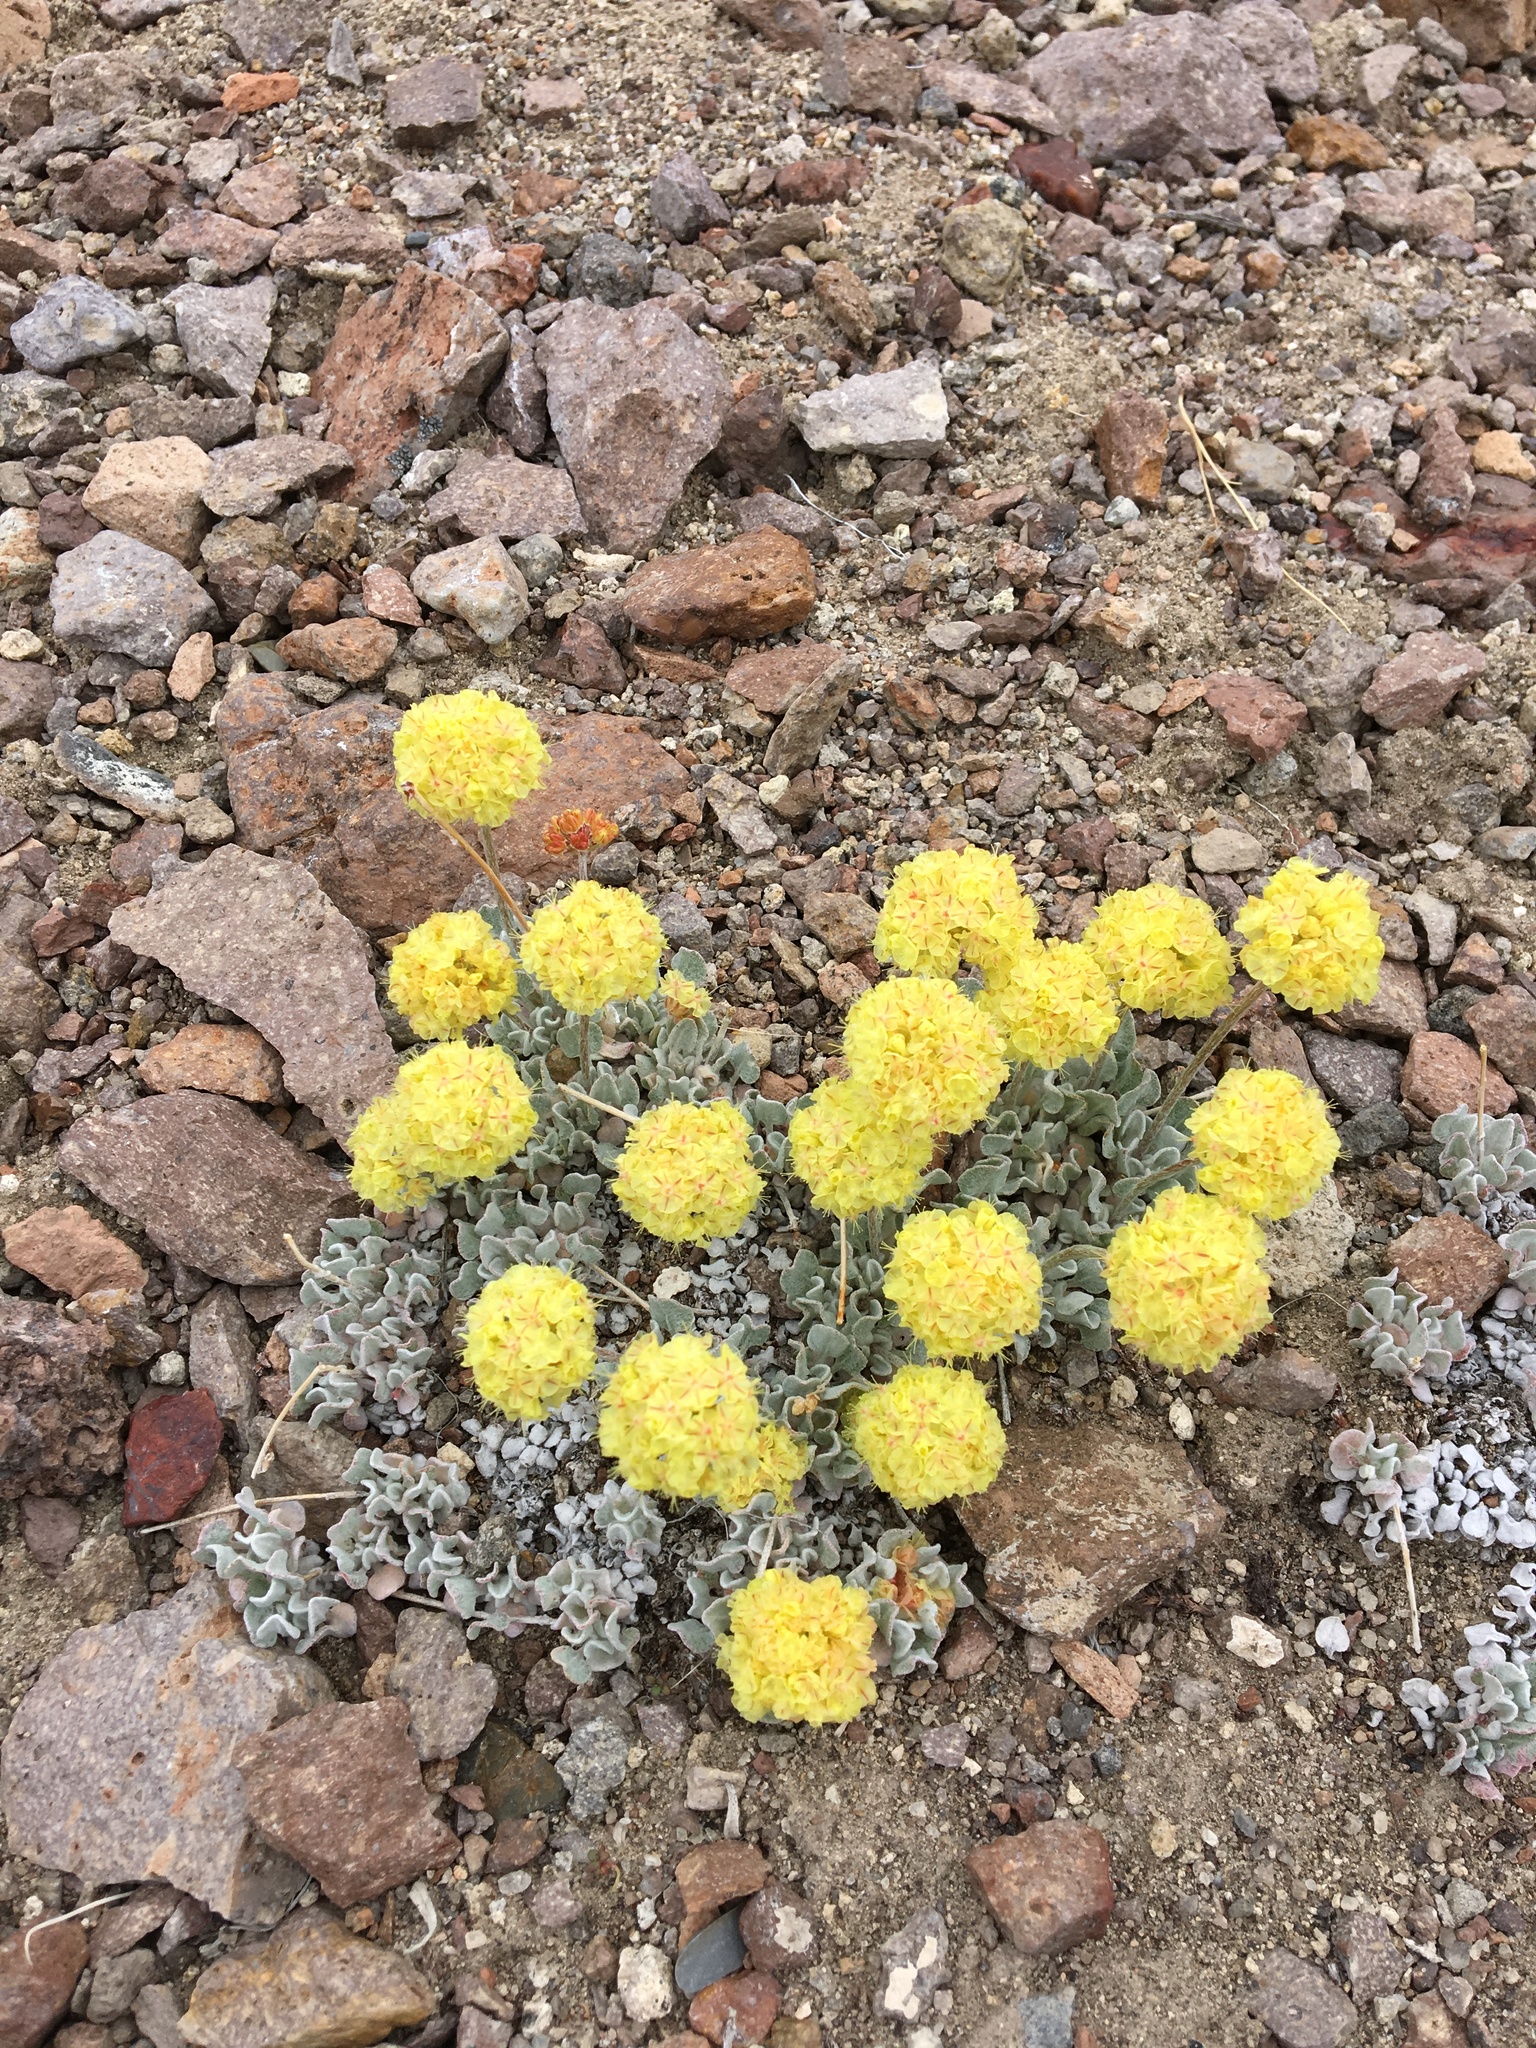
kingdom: Plantae
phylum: Tracheophyta
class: Magnoliopsida
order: Caryophyllales
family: Polygonaceae
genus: Eriogonum
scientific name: Eriogonum ovalifolium
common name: Cushion buckwheat
